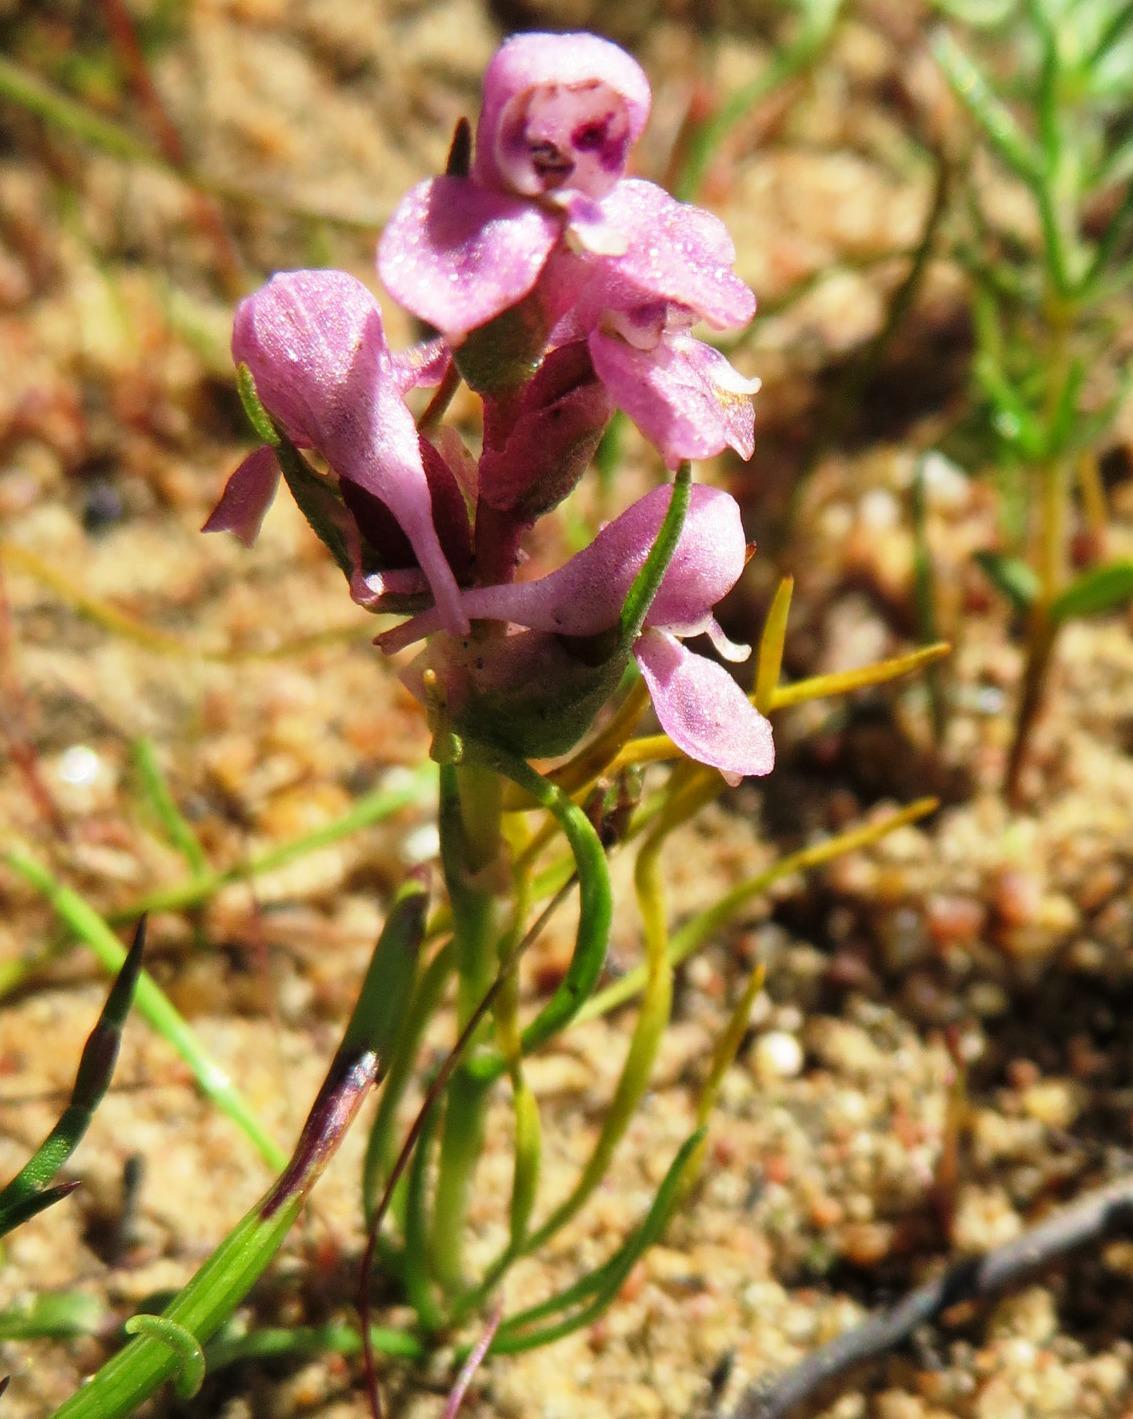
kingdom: Plantae
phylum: Tracheophyta
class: Liliopsida
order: Asparagales
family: Orchidaceae
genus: Disa
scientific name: Disa tenella
